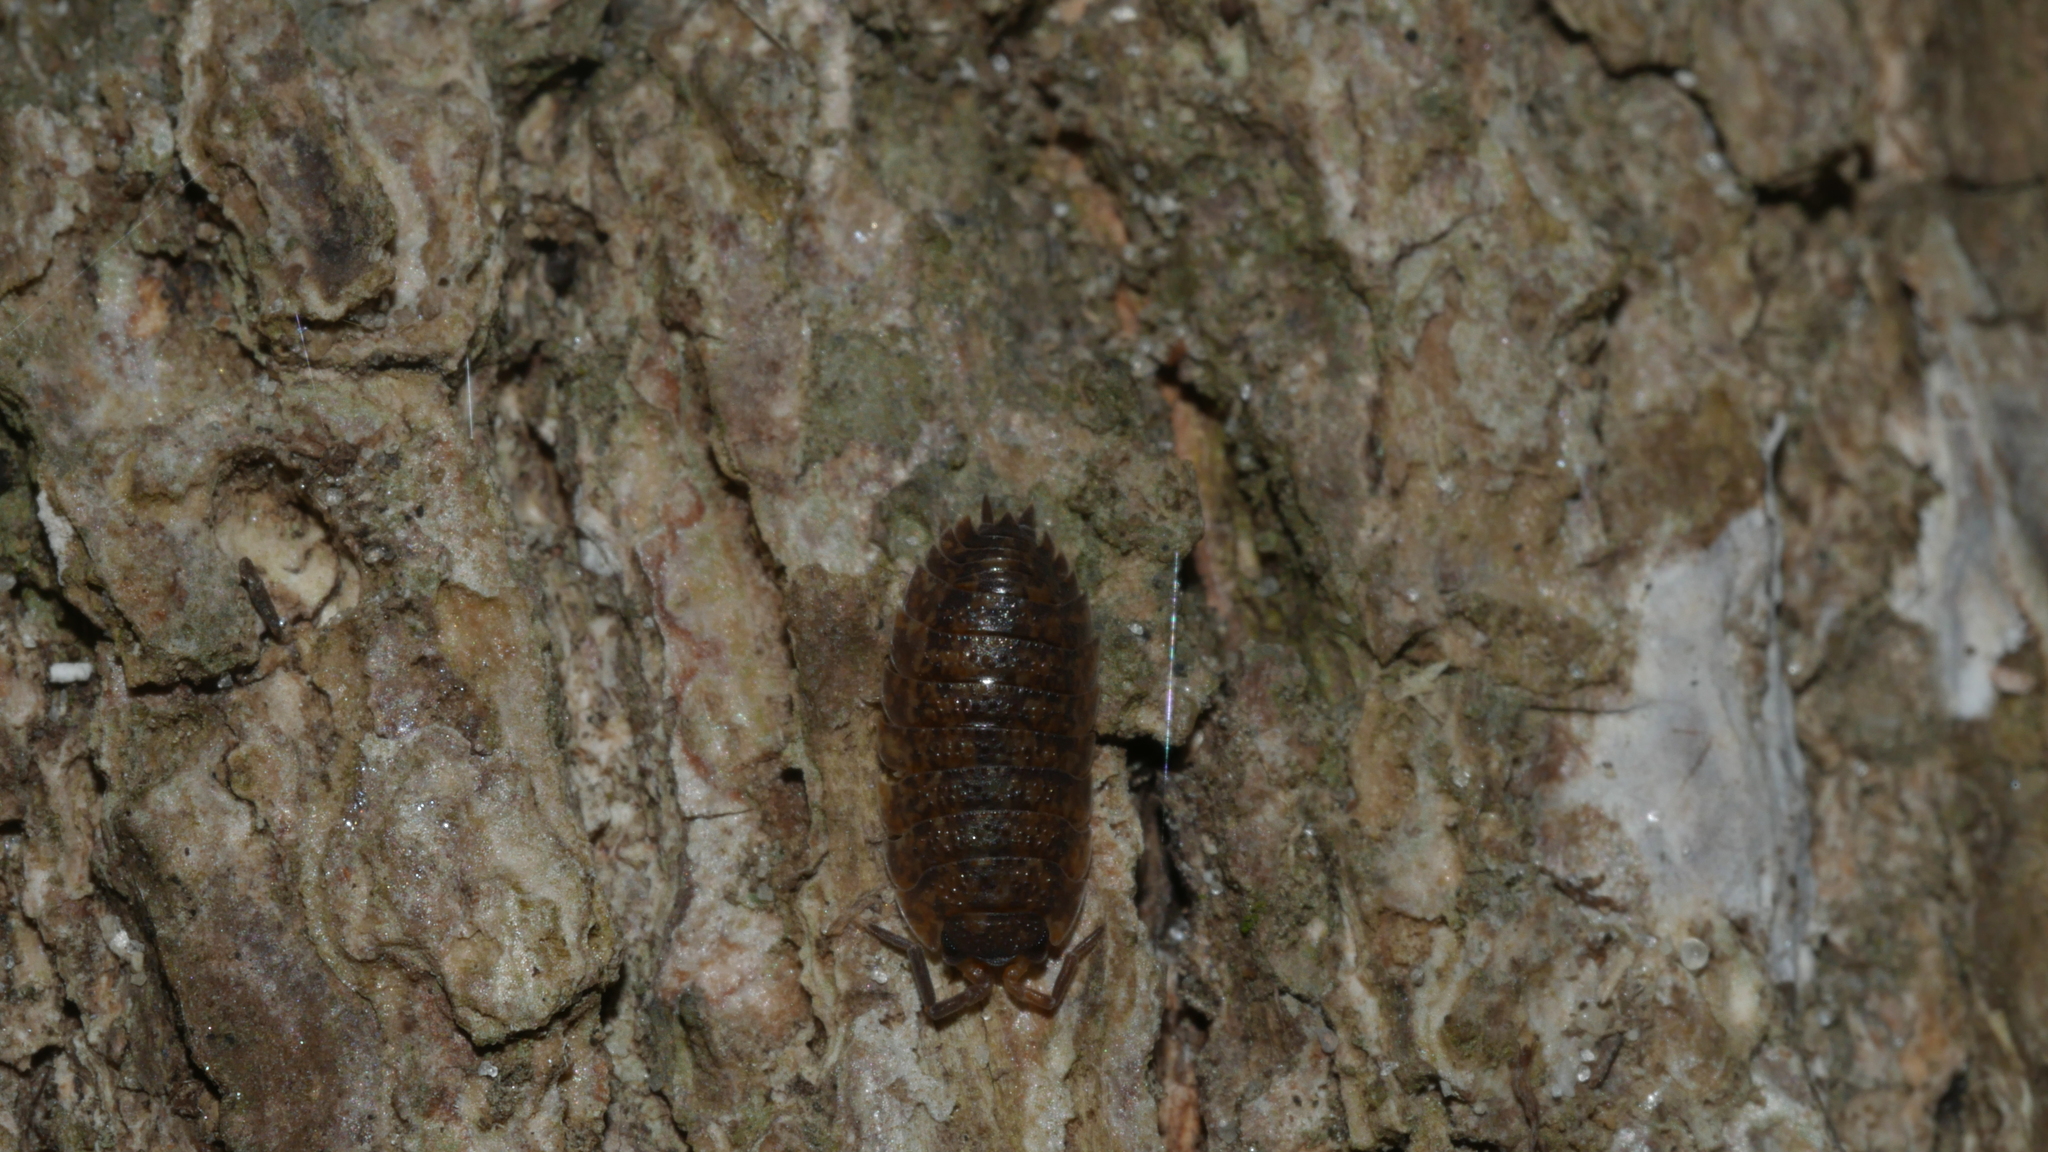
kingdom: Animalia
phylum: Arthropoda
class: Malacostraca
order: Isopoda
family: Porcellionidae
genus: Porcellio
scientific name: Porcellio scaber
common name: Common rough woodlouse
